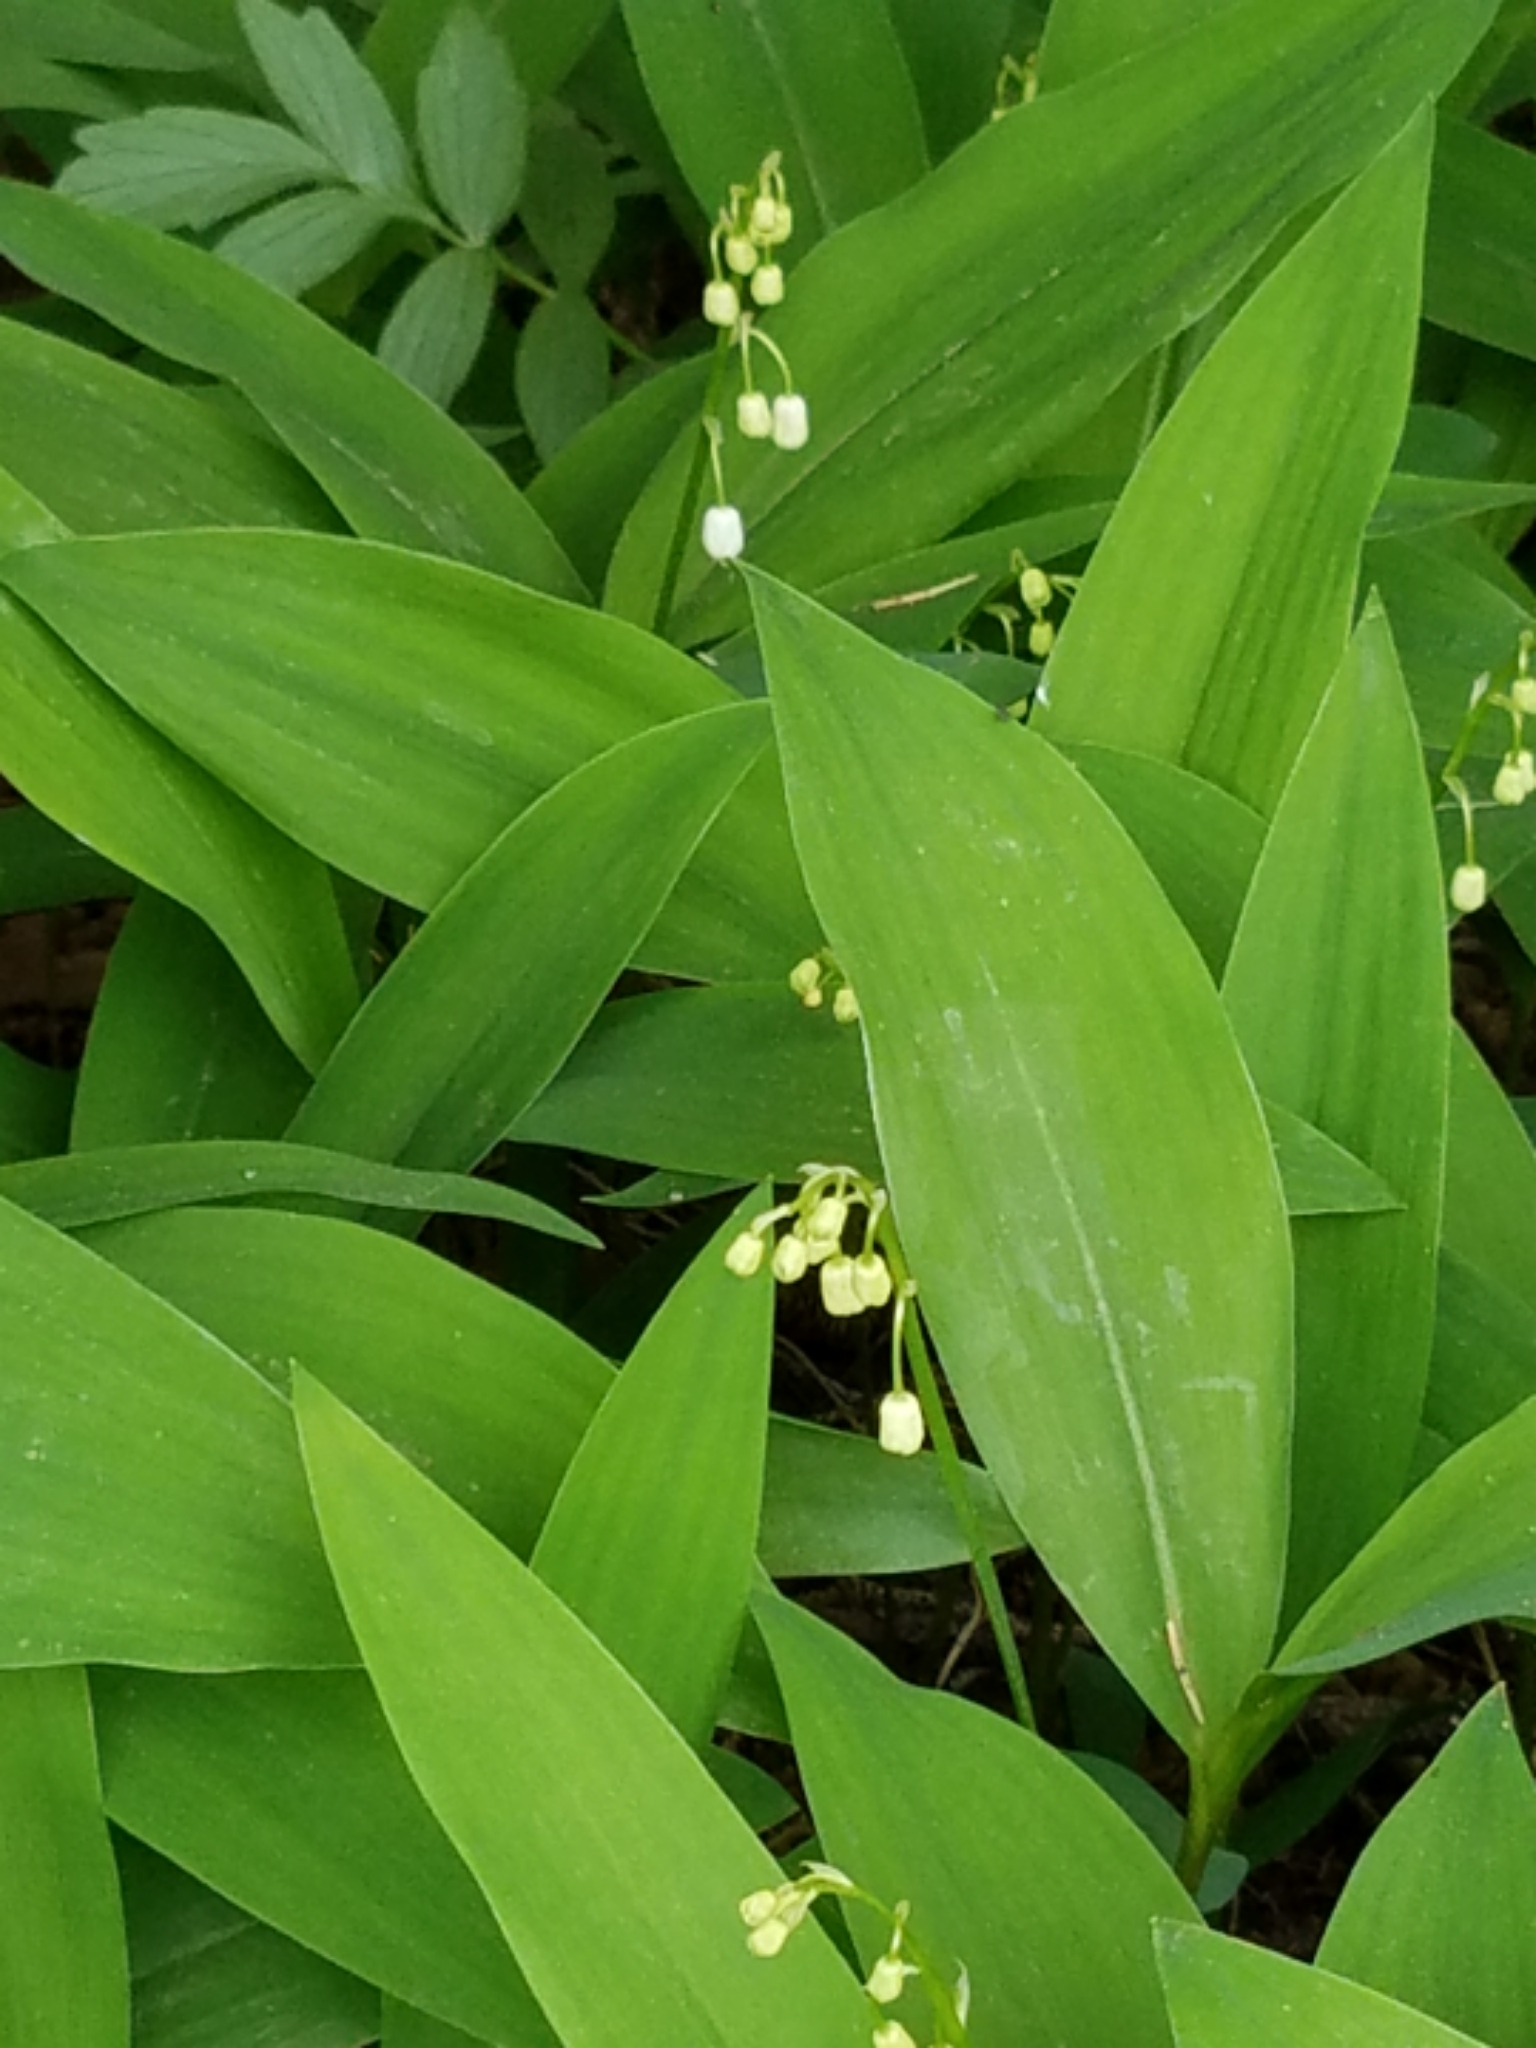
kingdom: Plantae
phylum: Tracheophyta
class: Liliopsida
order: Asparagales
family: Asparagaceae
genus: Convallaria
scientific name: Convallaria majalis
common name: Lily-of-the-valley
